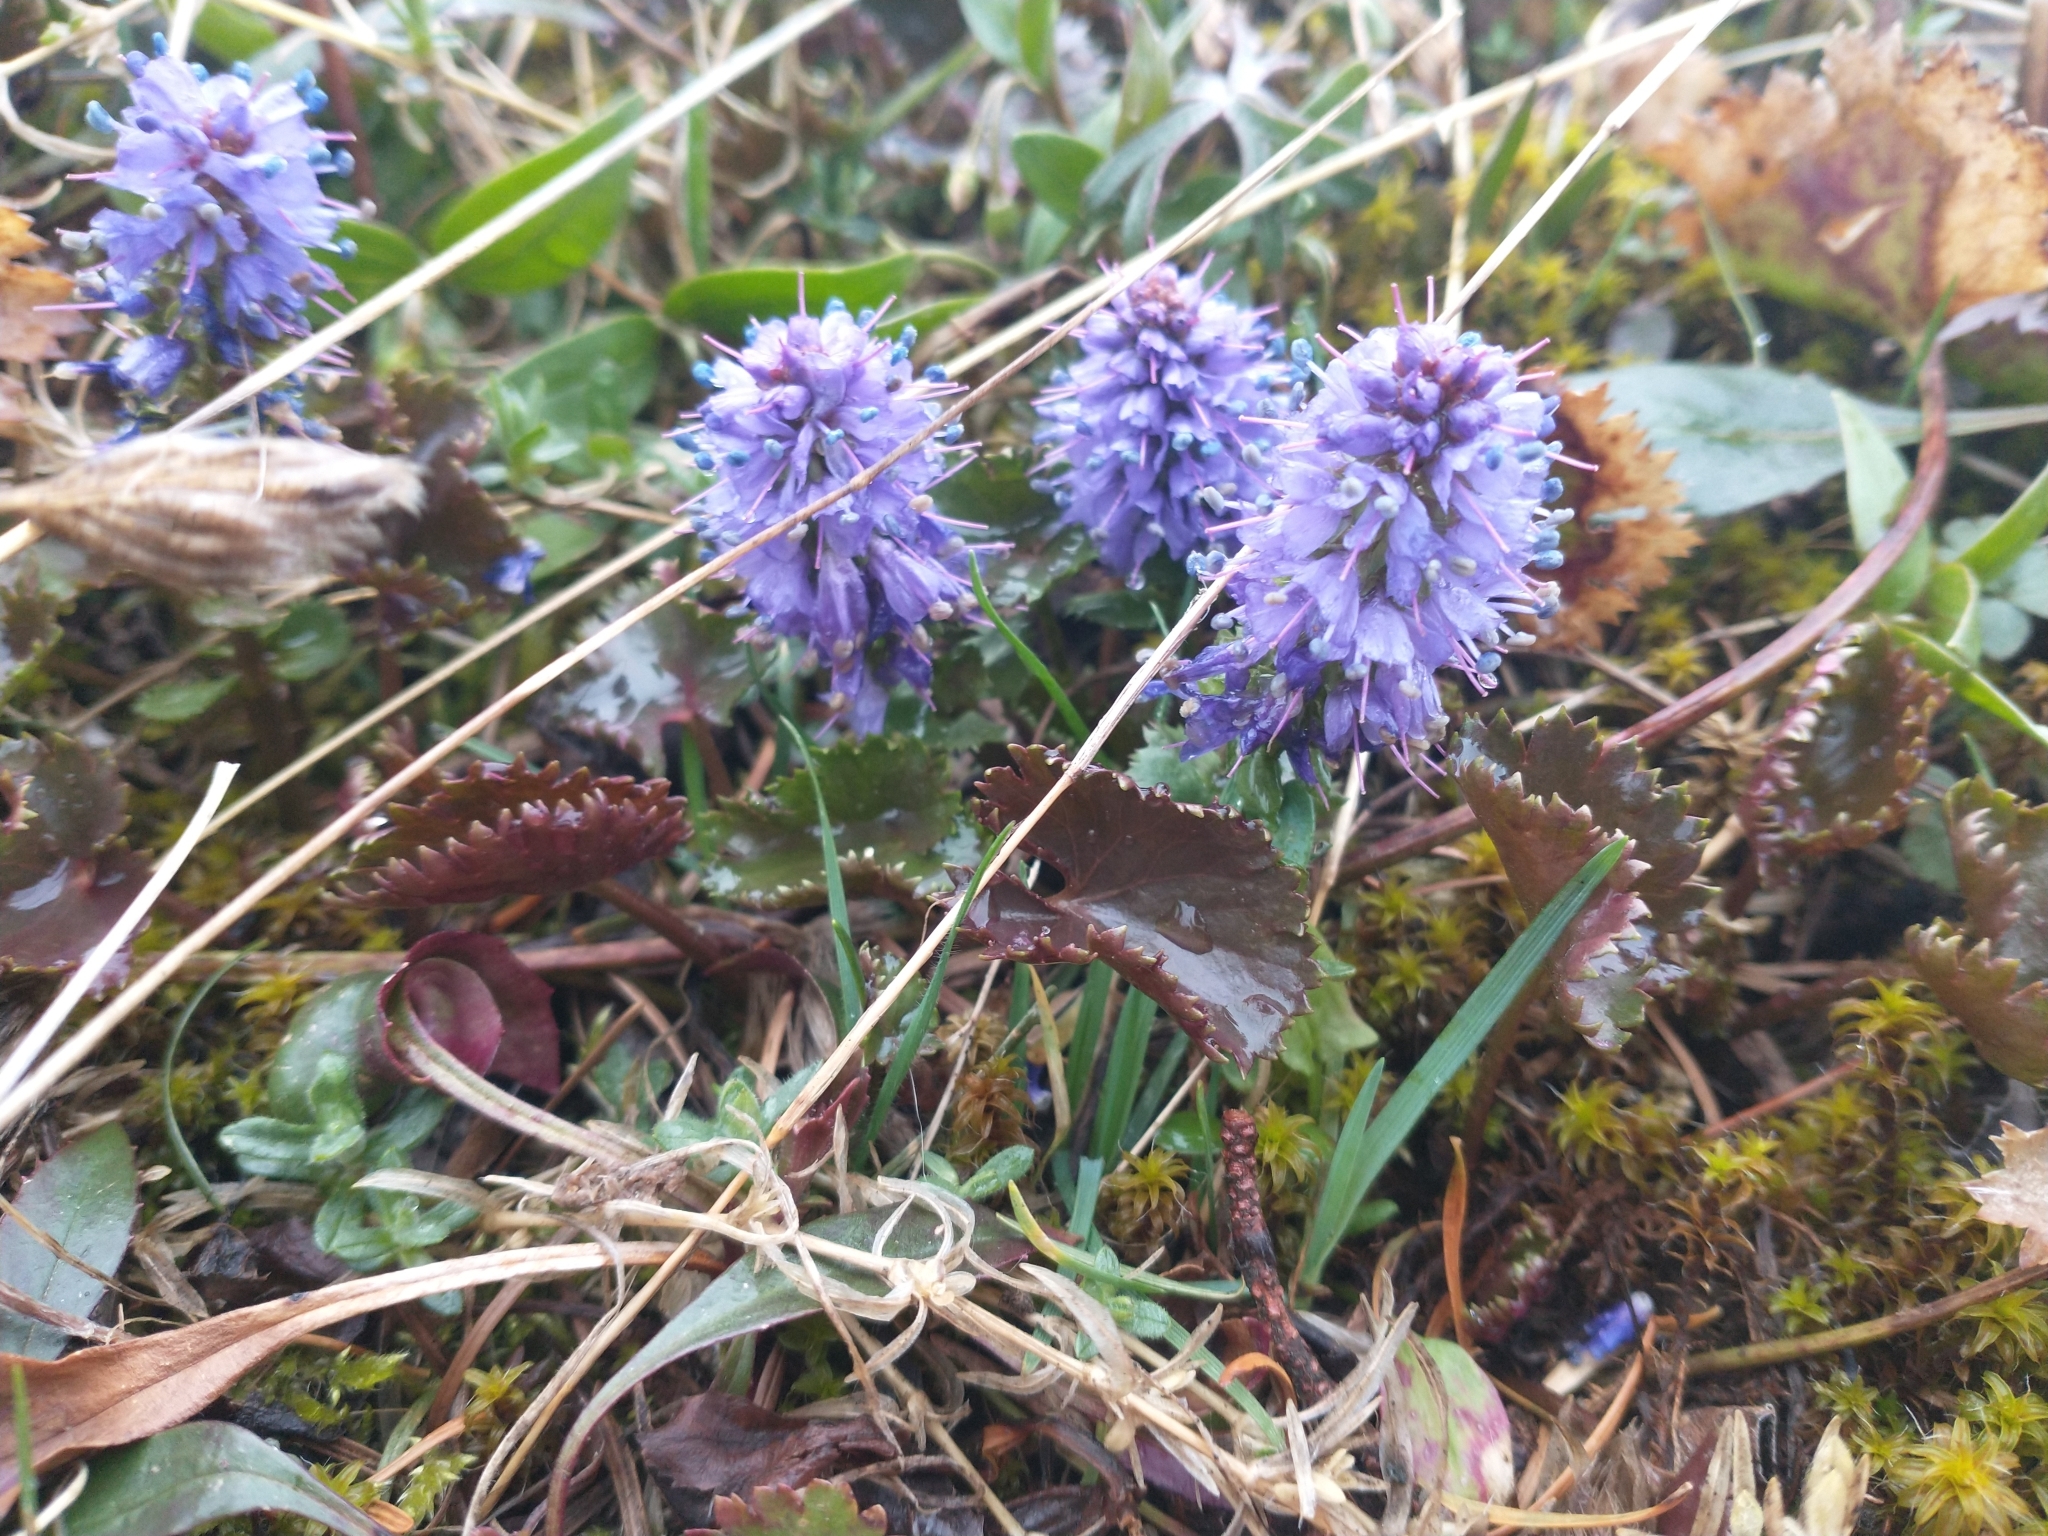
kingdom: Plantae
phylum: Tracheophyta
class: Magnoliopsida
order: Lamiales
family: Plantaginaceae
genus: Synthyris
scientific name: Synthyris missurica
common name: Kitten-tails
